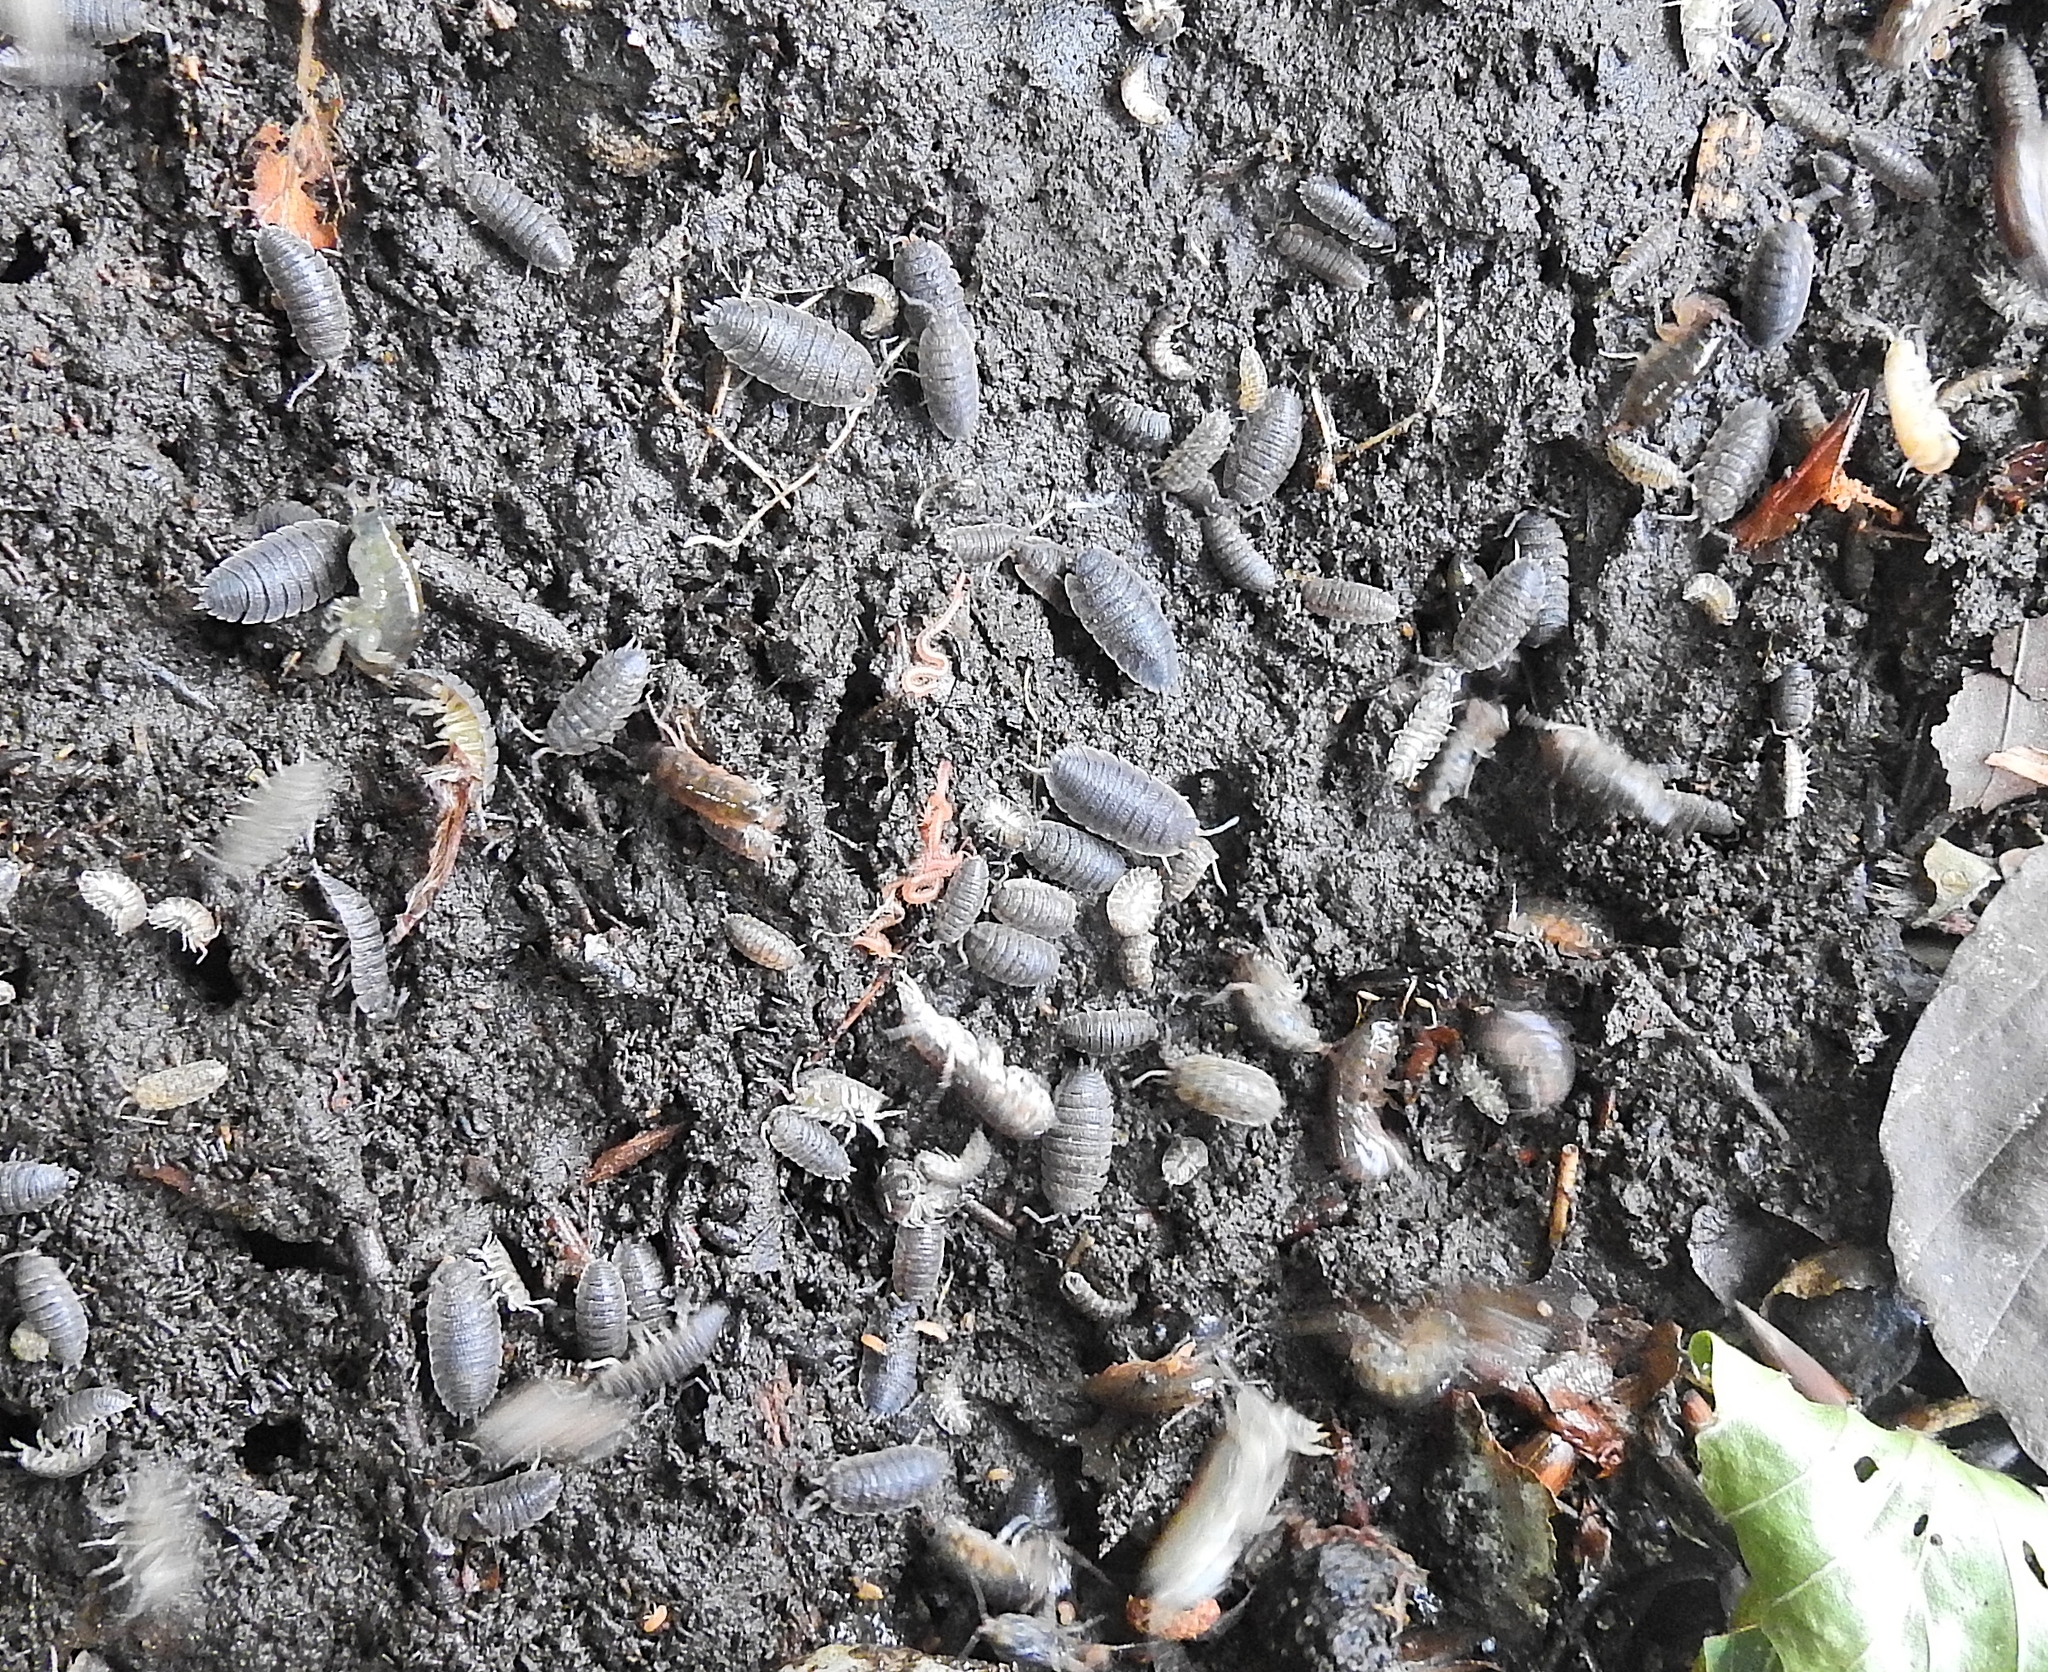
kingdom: Animalia
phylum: Arthropoda
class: Malacostraca
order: Isopoda
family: Porcellionidae
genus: Porcellio
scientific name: Porcellio scaber
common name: Common rough woodlouse
